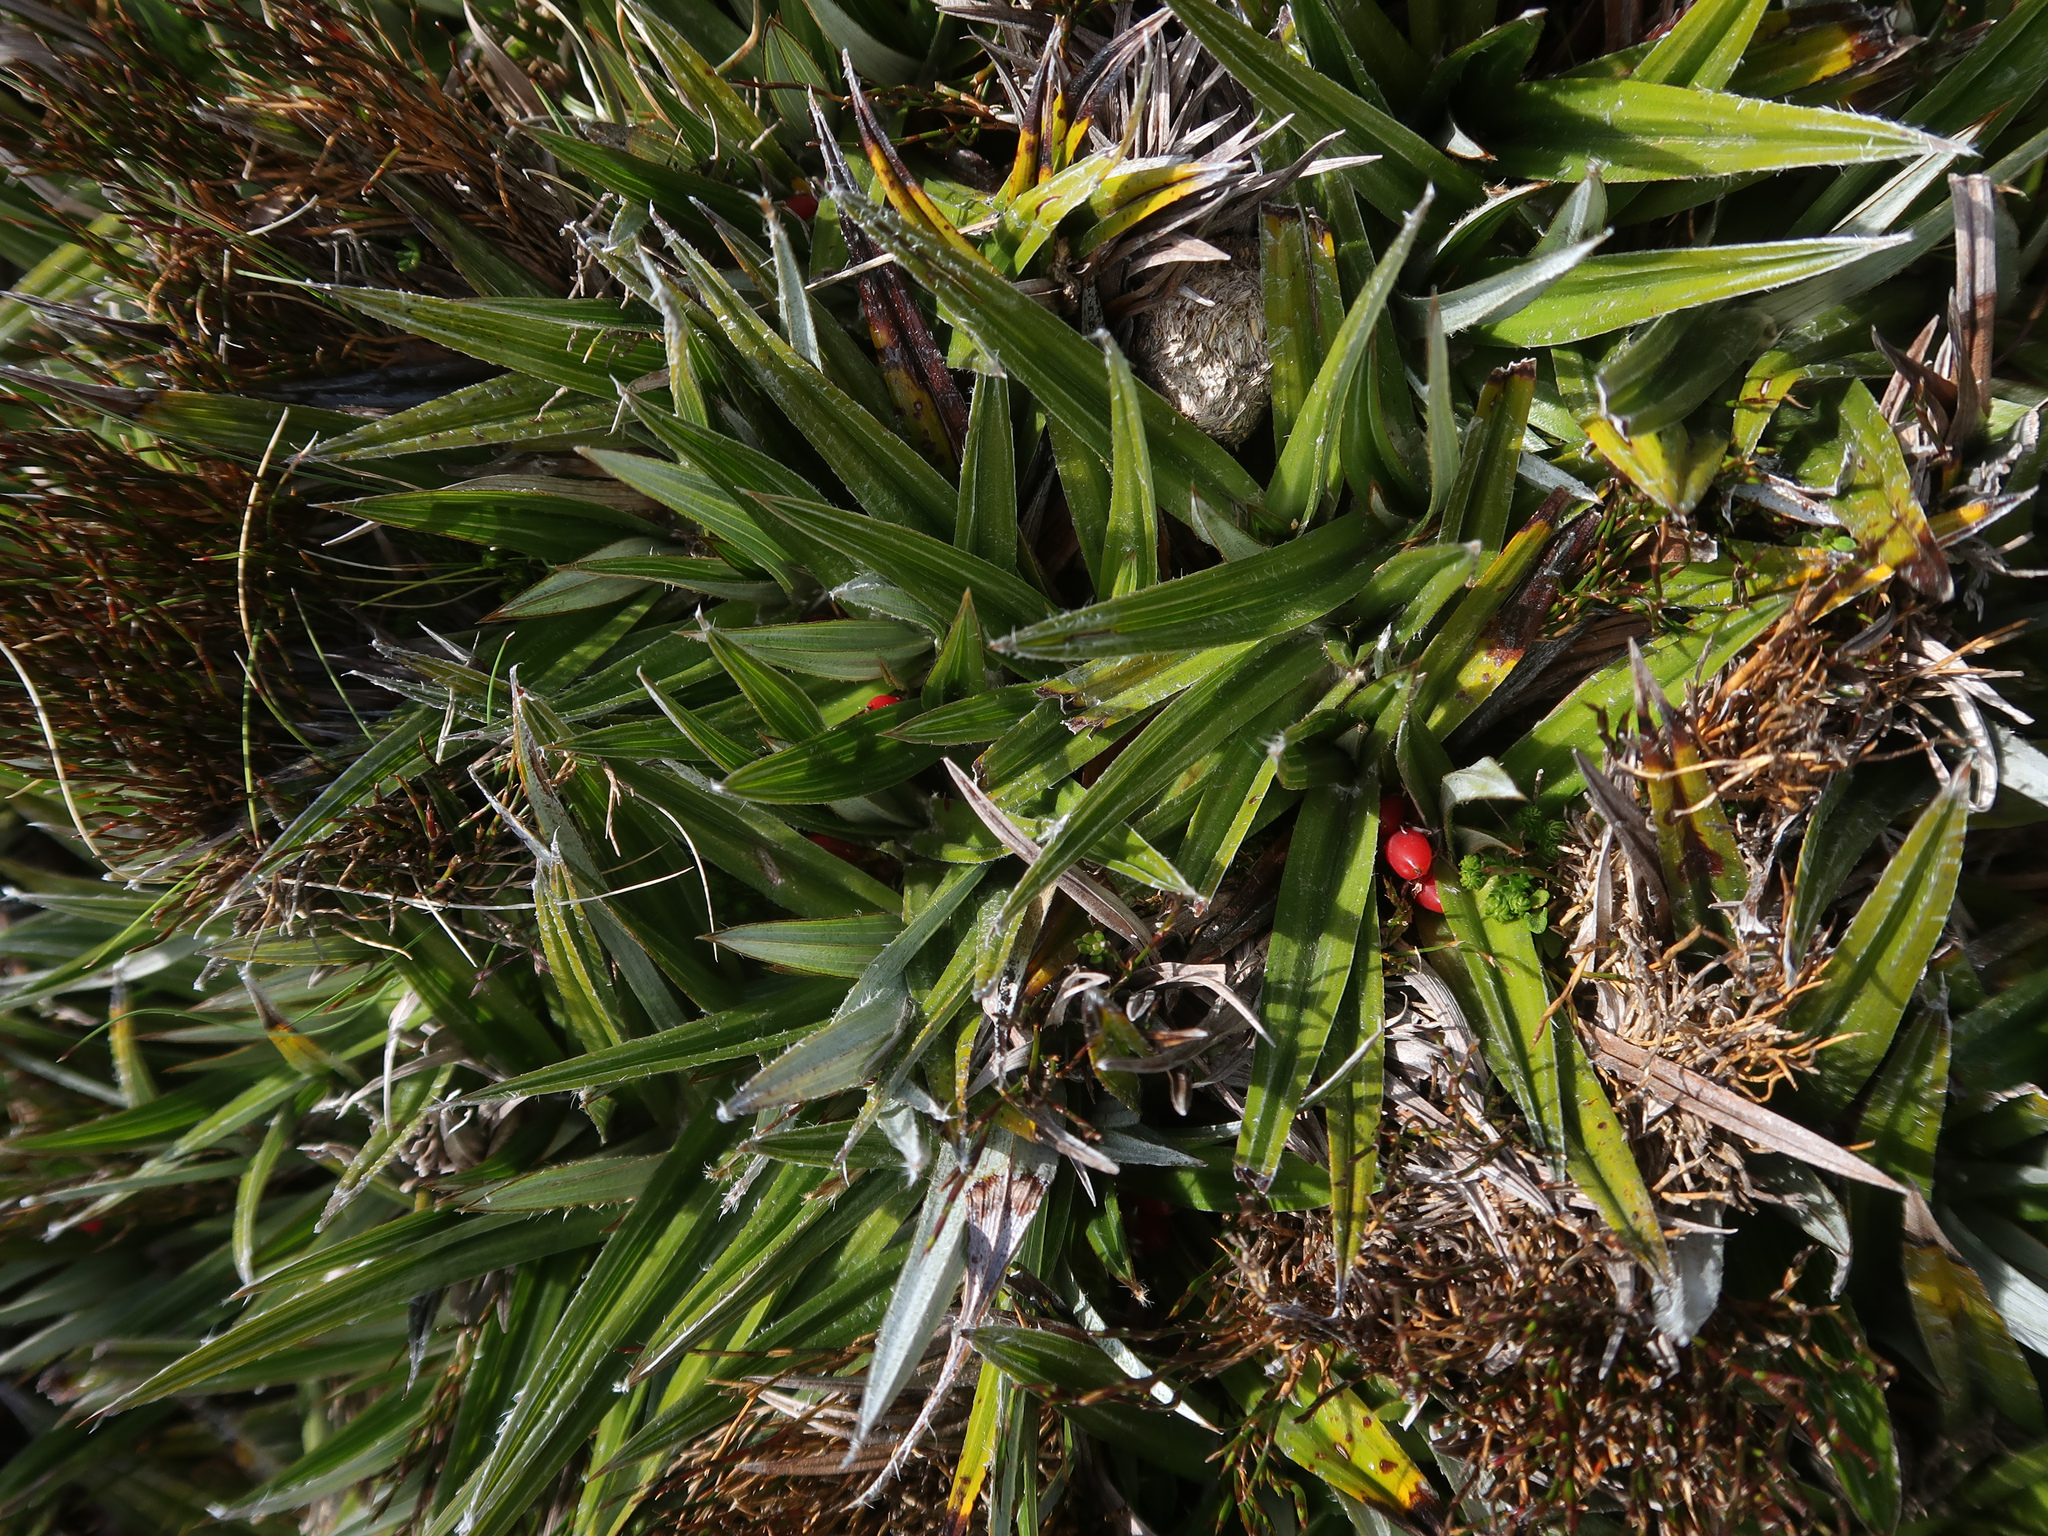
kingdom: Plantae
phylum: Tracheophyta
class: Liliopsida
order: Asparagales
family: Asteliaceae
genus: Astelia
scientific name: Astelia alpina
